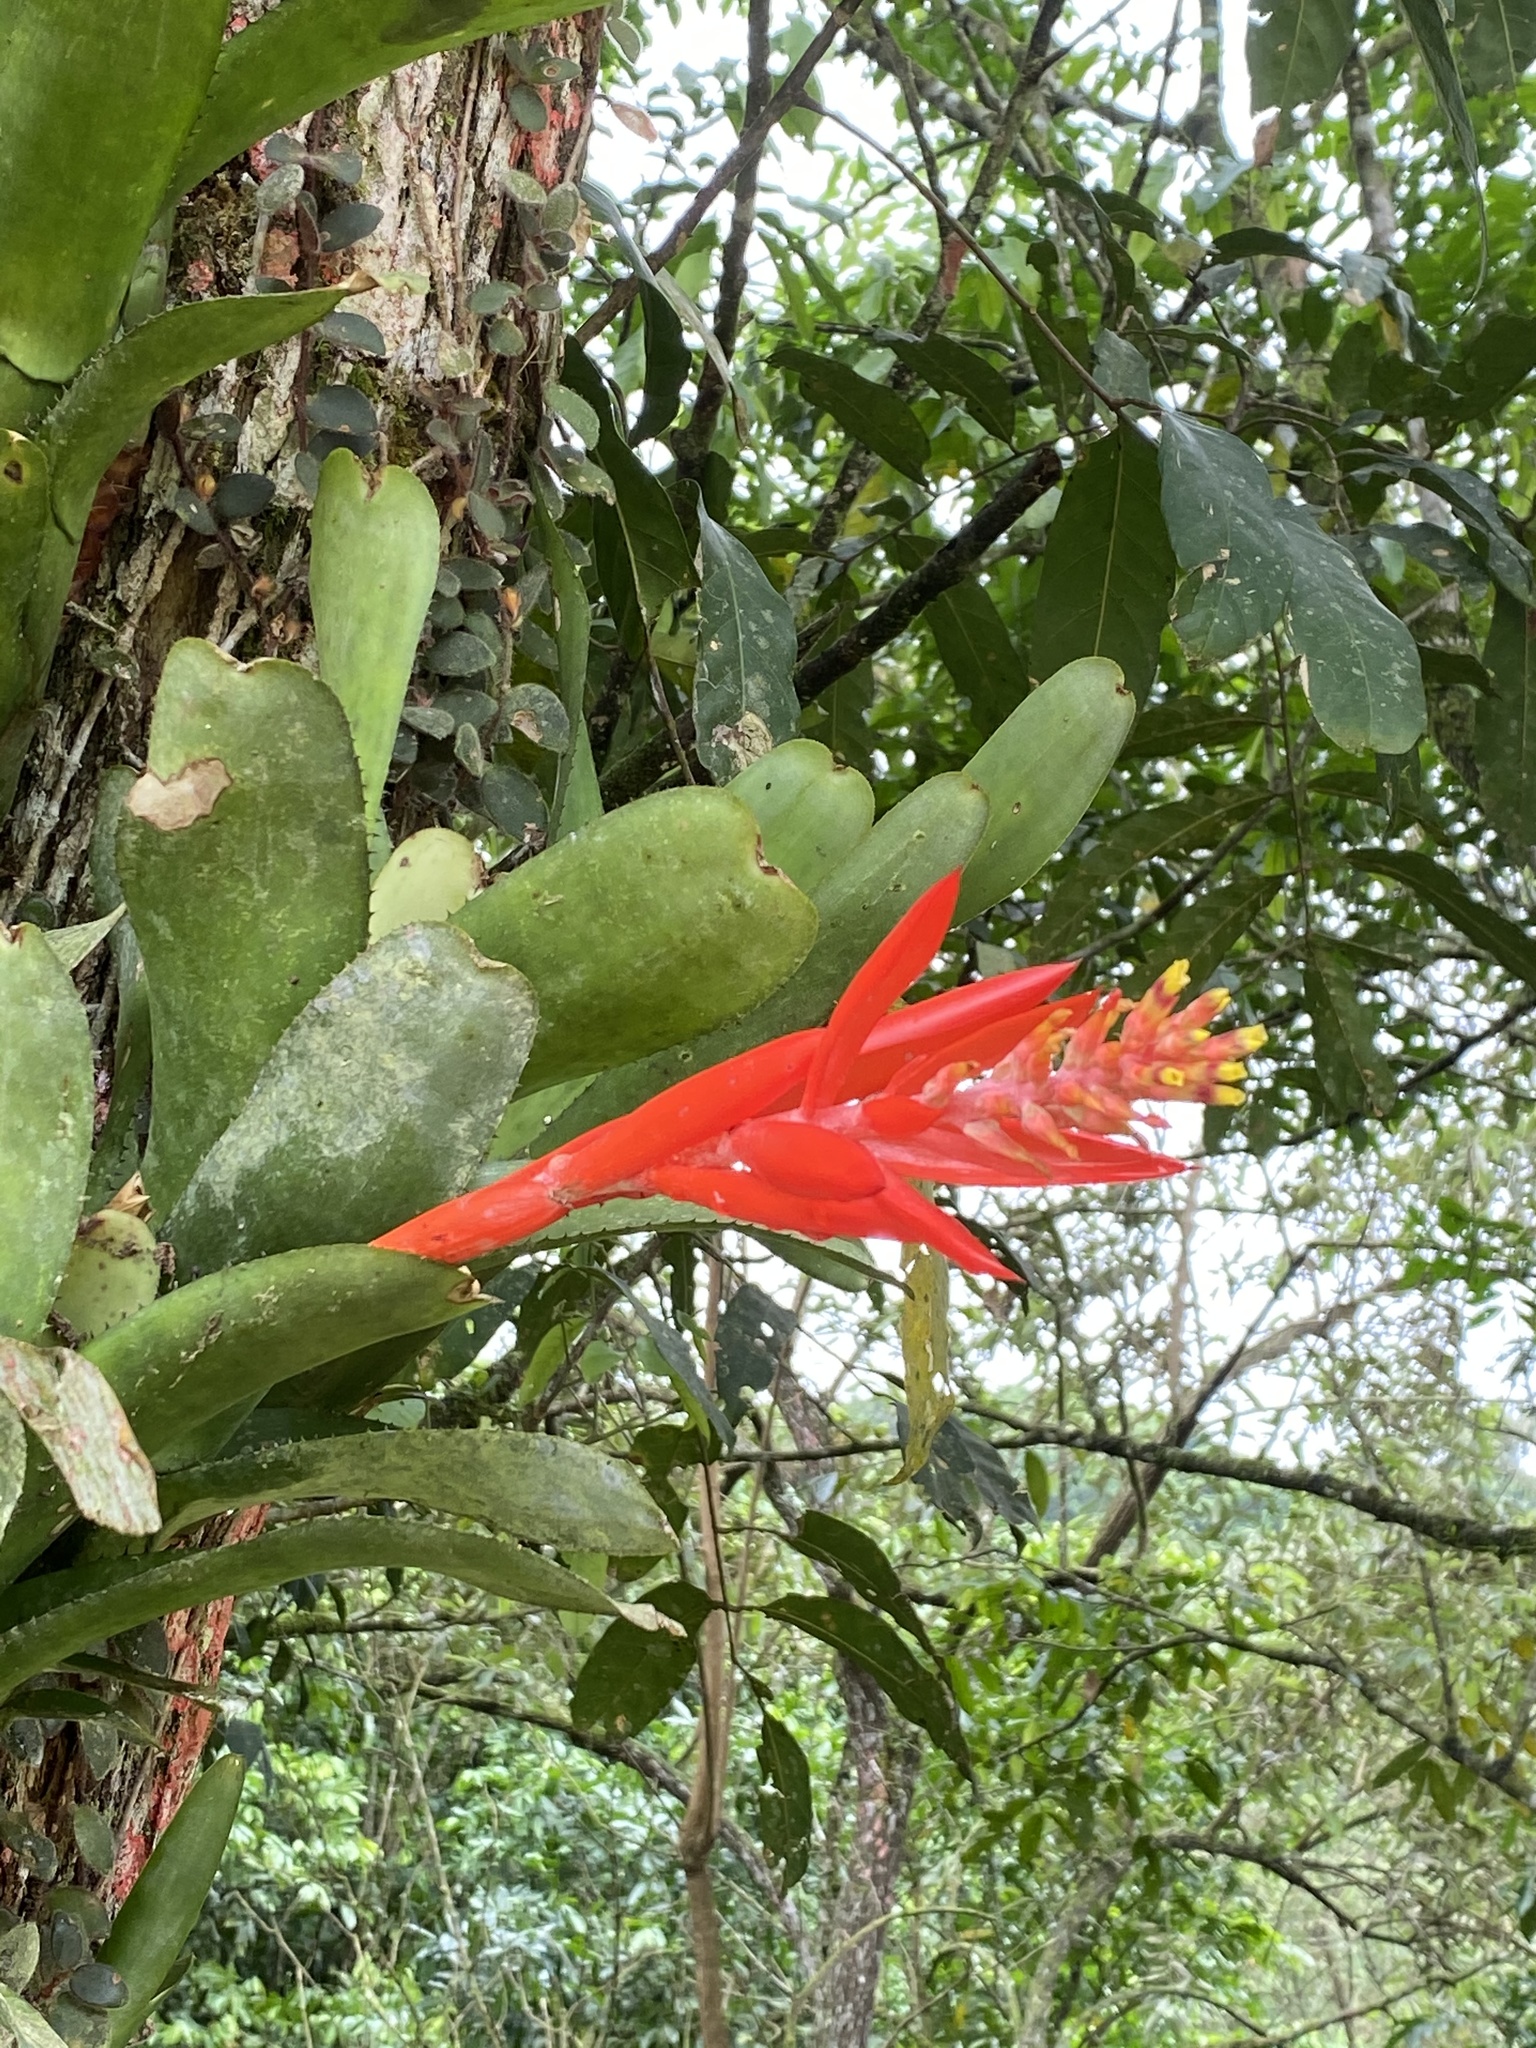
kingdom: Plantae
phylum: Tracheophyta
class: Liliopsida
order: Poales
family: Bromeliaceae
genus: Aechmea
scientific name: Aechmea nudicaulis
